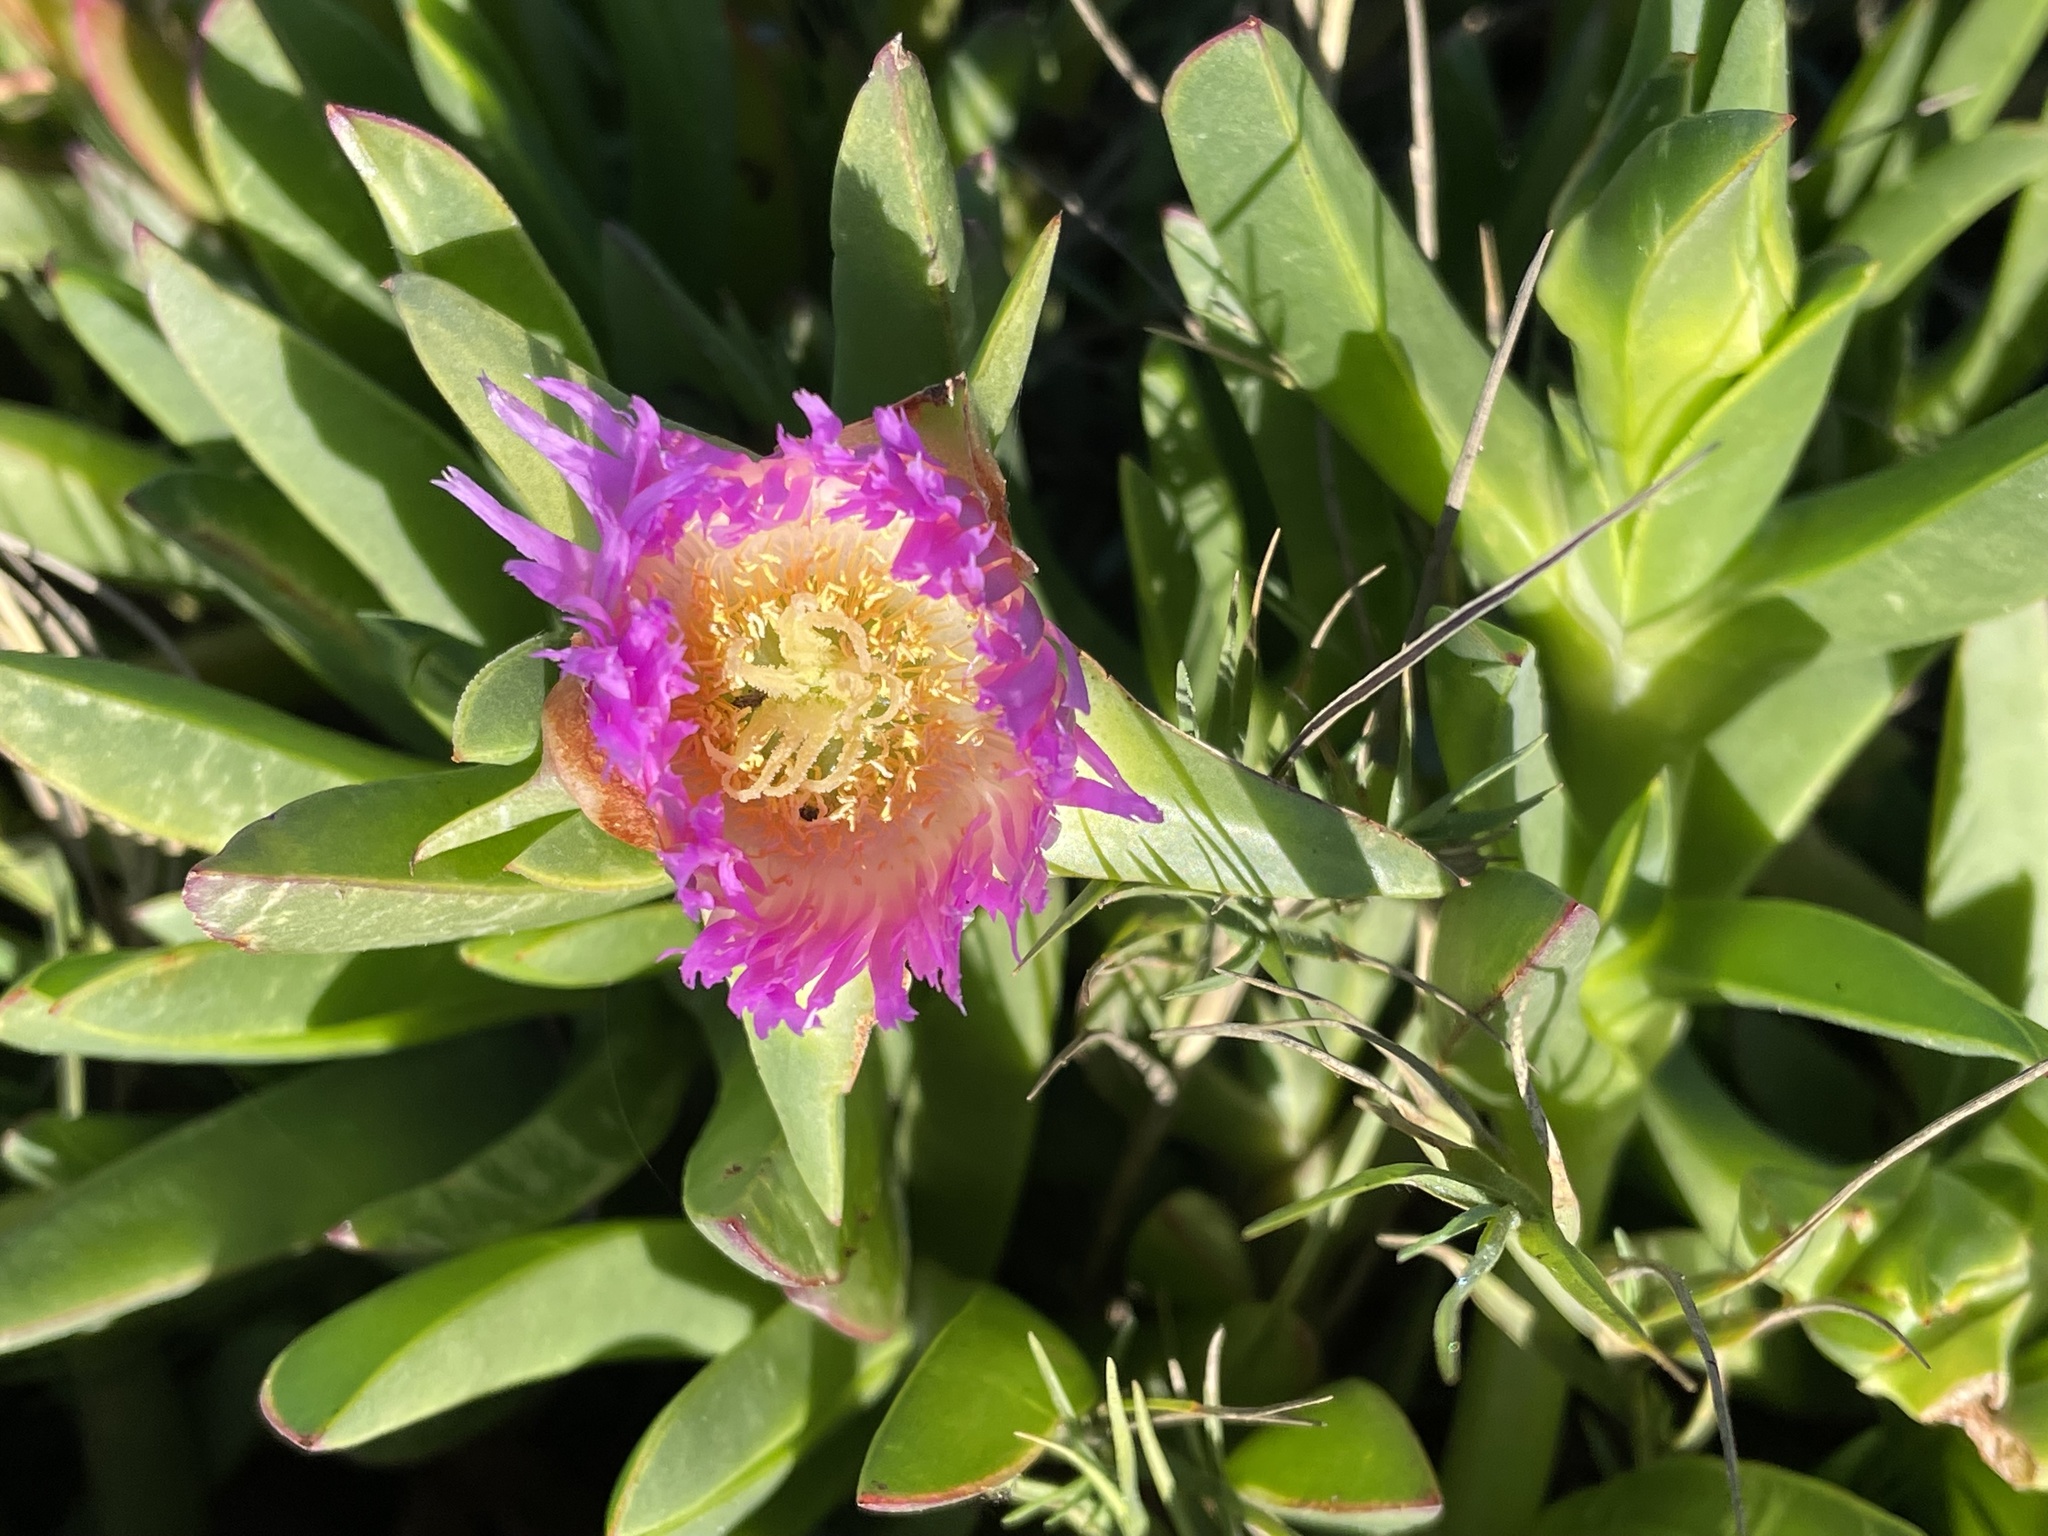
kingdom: Plantae
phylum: Tracheophyta
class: Magnoliopsida
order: Caryophyllales
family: Aizoaceae
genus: Carpobrotus
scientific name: Carpobrotus chilensis
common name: Sea fig
